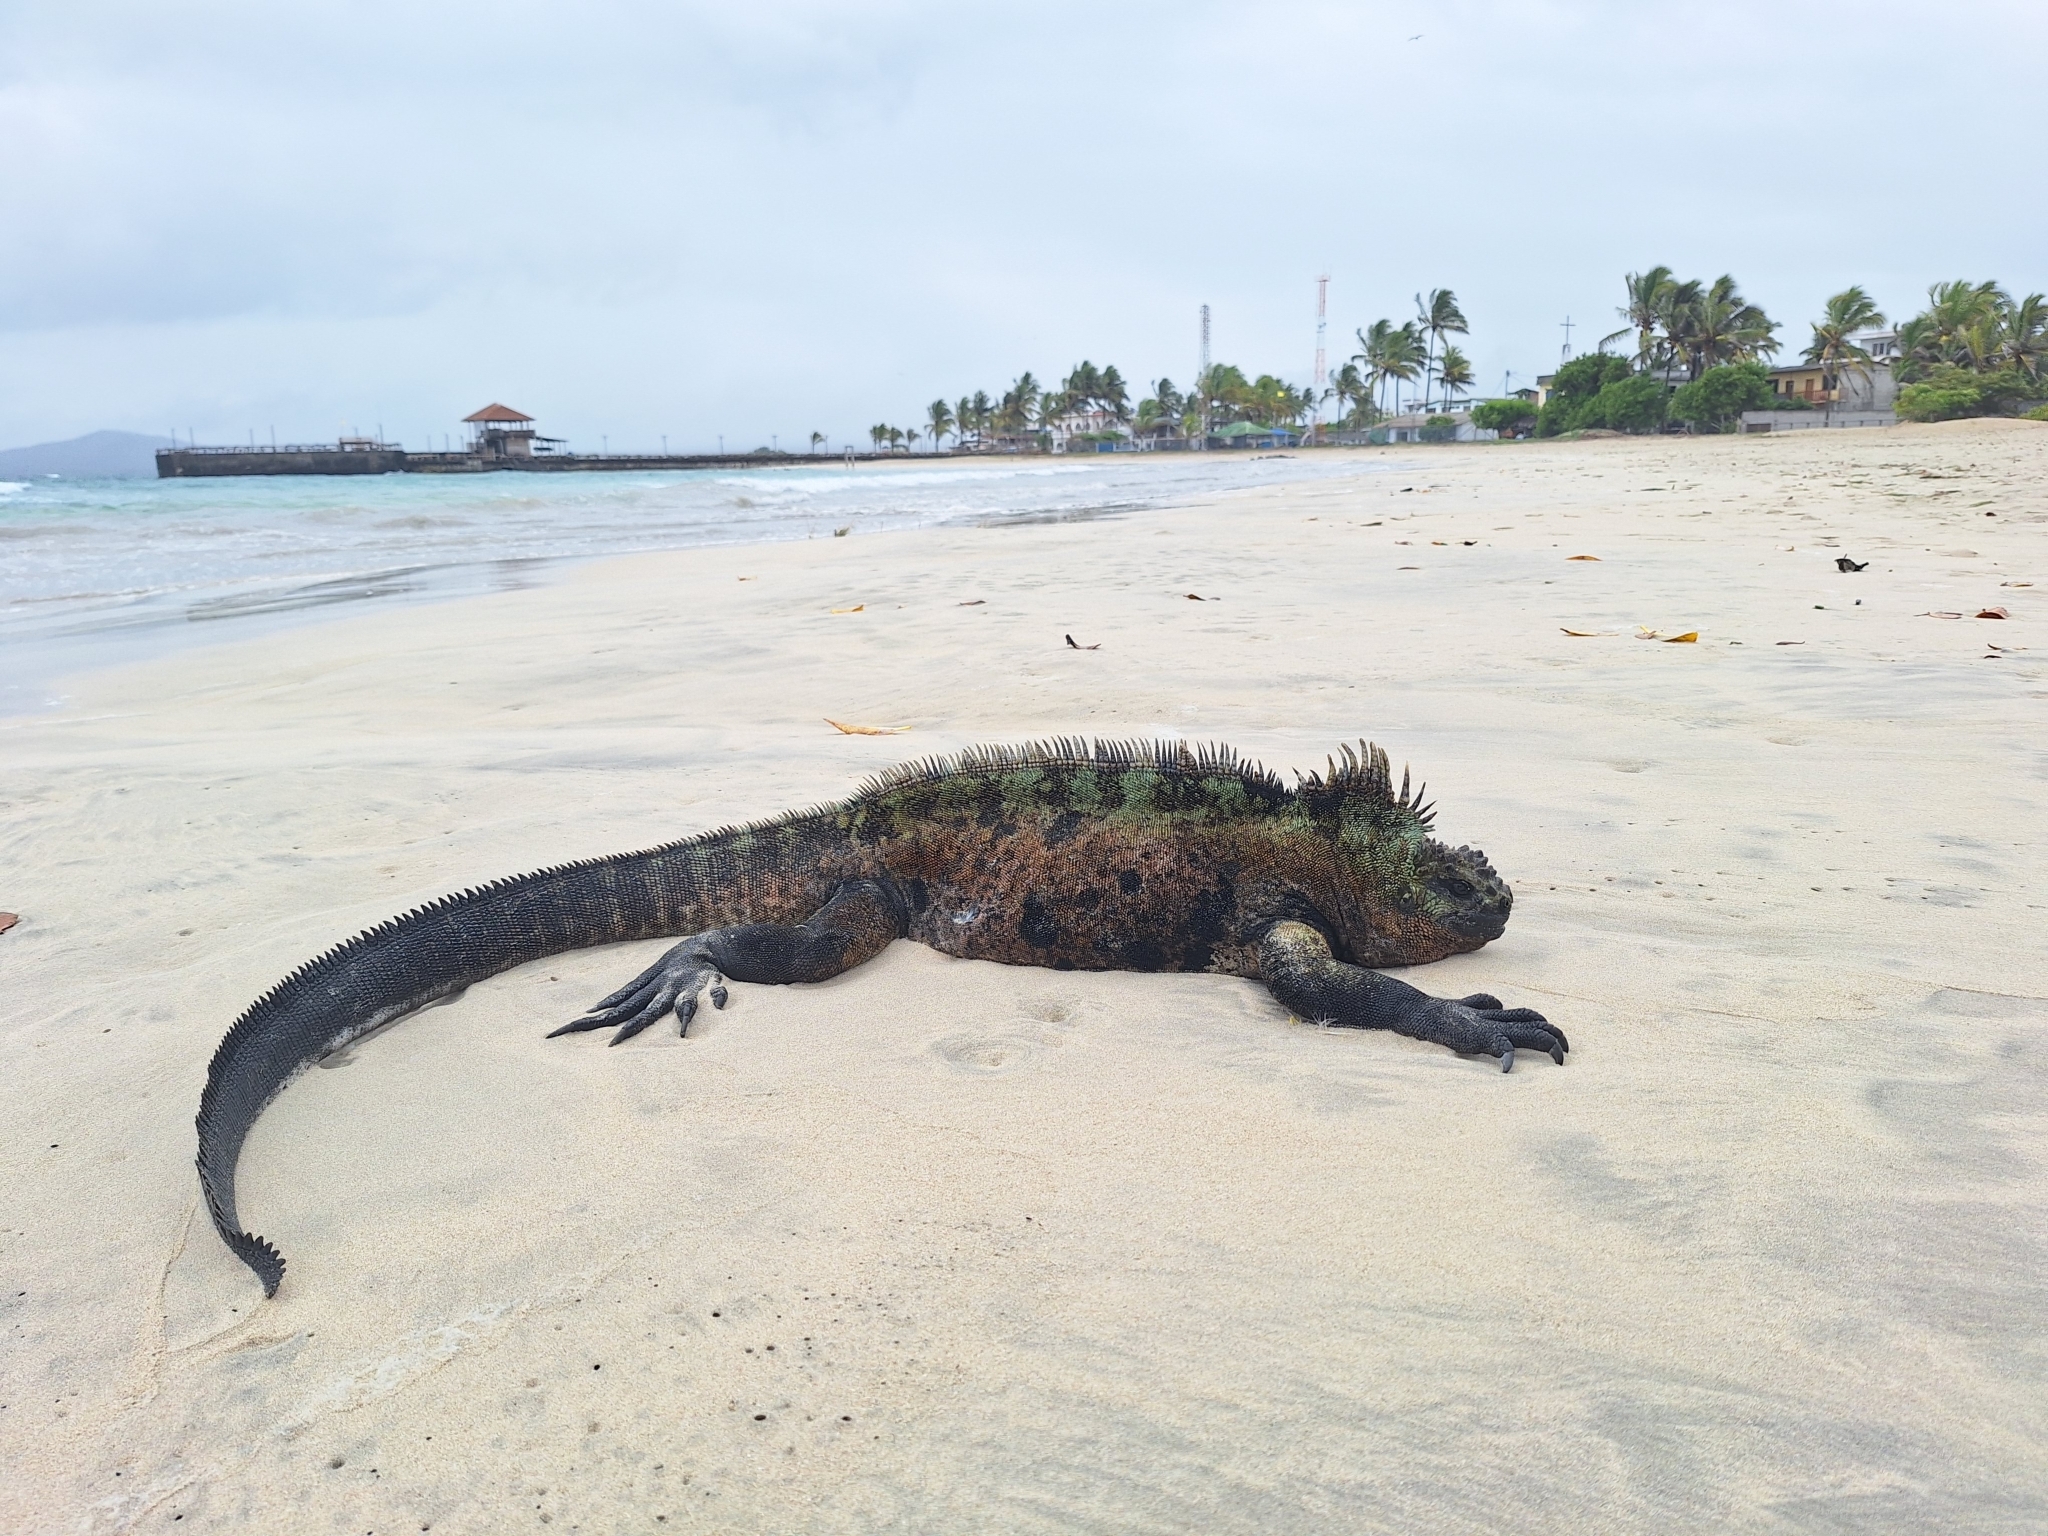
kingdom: Animalia
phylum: Chordata
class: Squamata
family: Iguanidae
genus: Amblyrhynchus
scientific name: Amblyrhynchus cristatus
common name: Marine iguana
